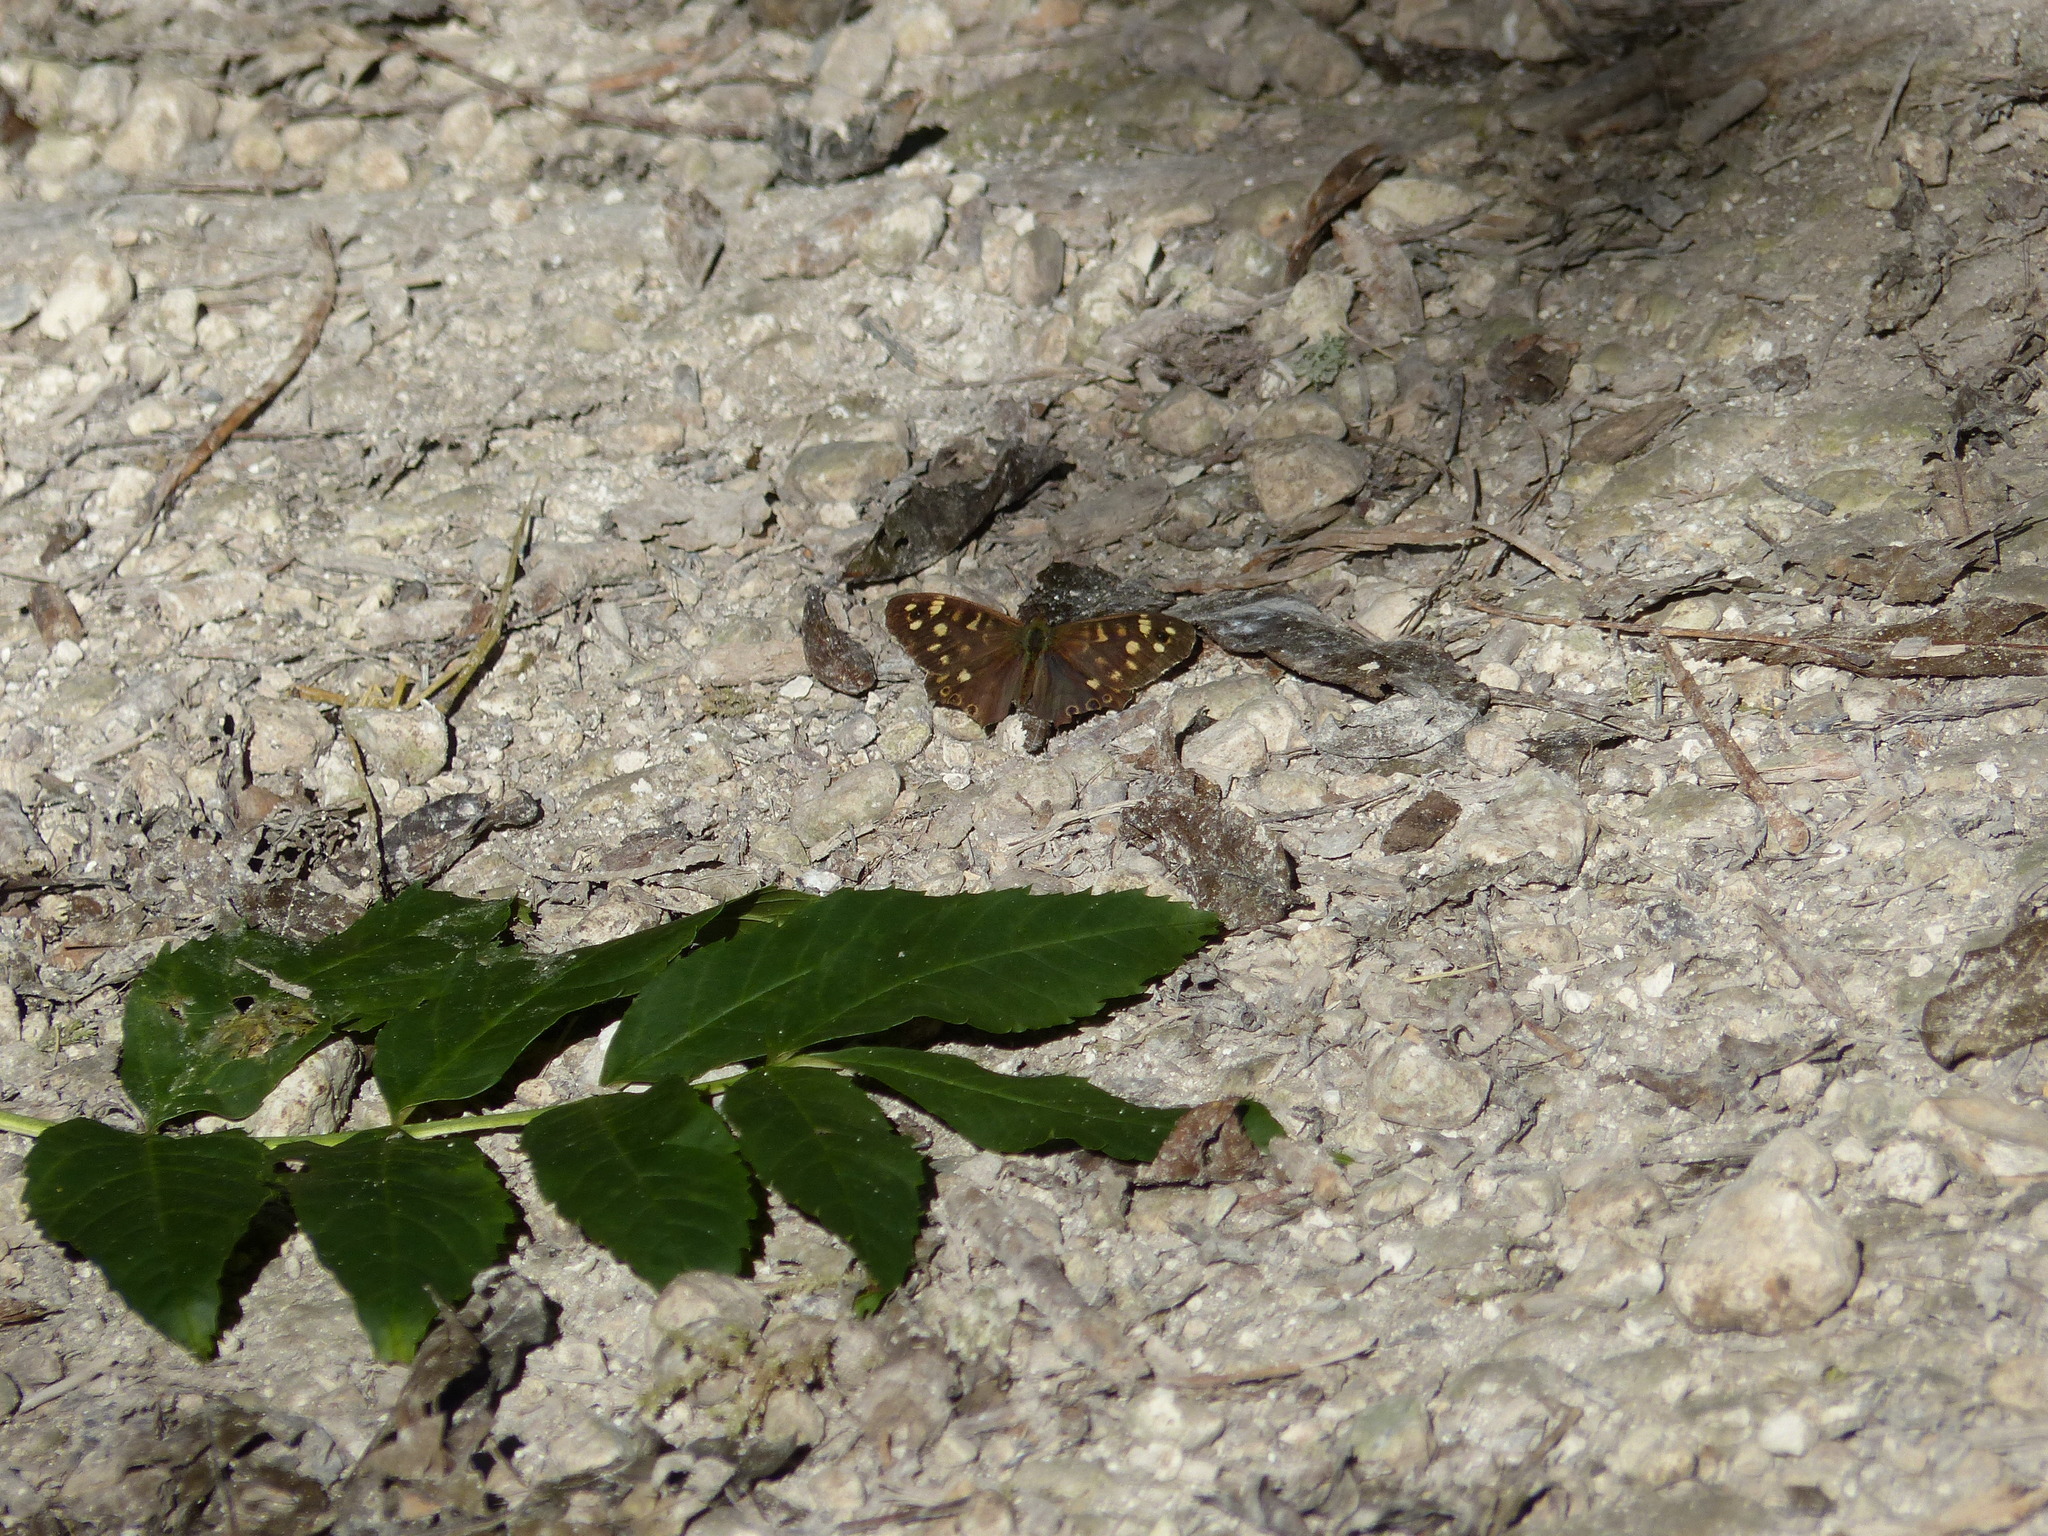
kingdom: Animalia
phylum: Arthropoda
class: Insecta
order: Lepidoptera
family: Nymphalidae
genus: Pararge
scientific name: Pararge aegeria
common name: Speckled wood
